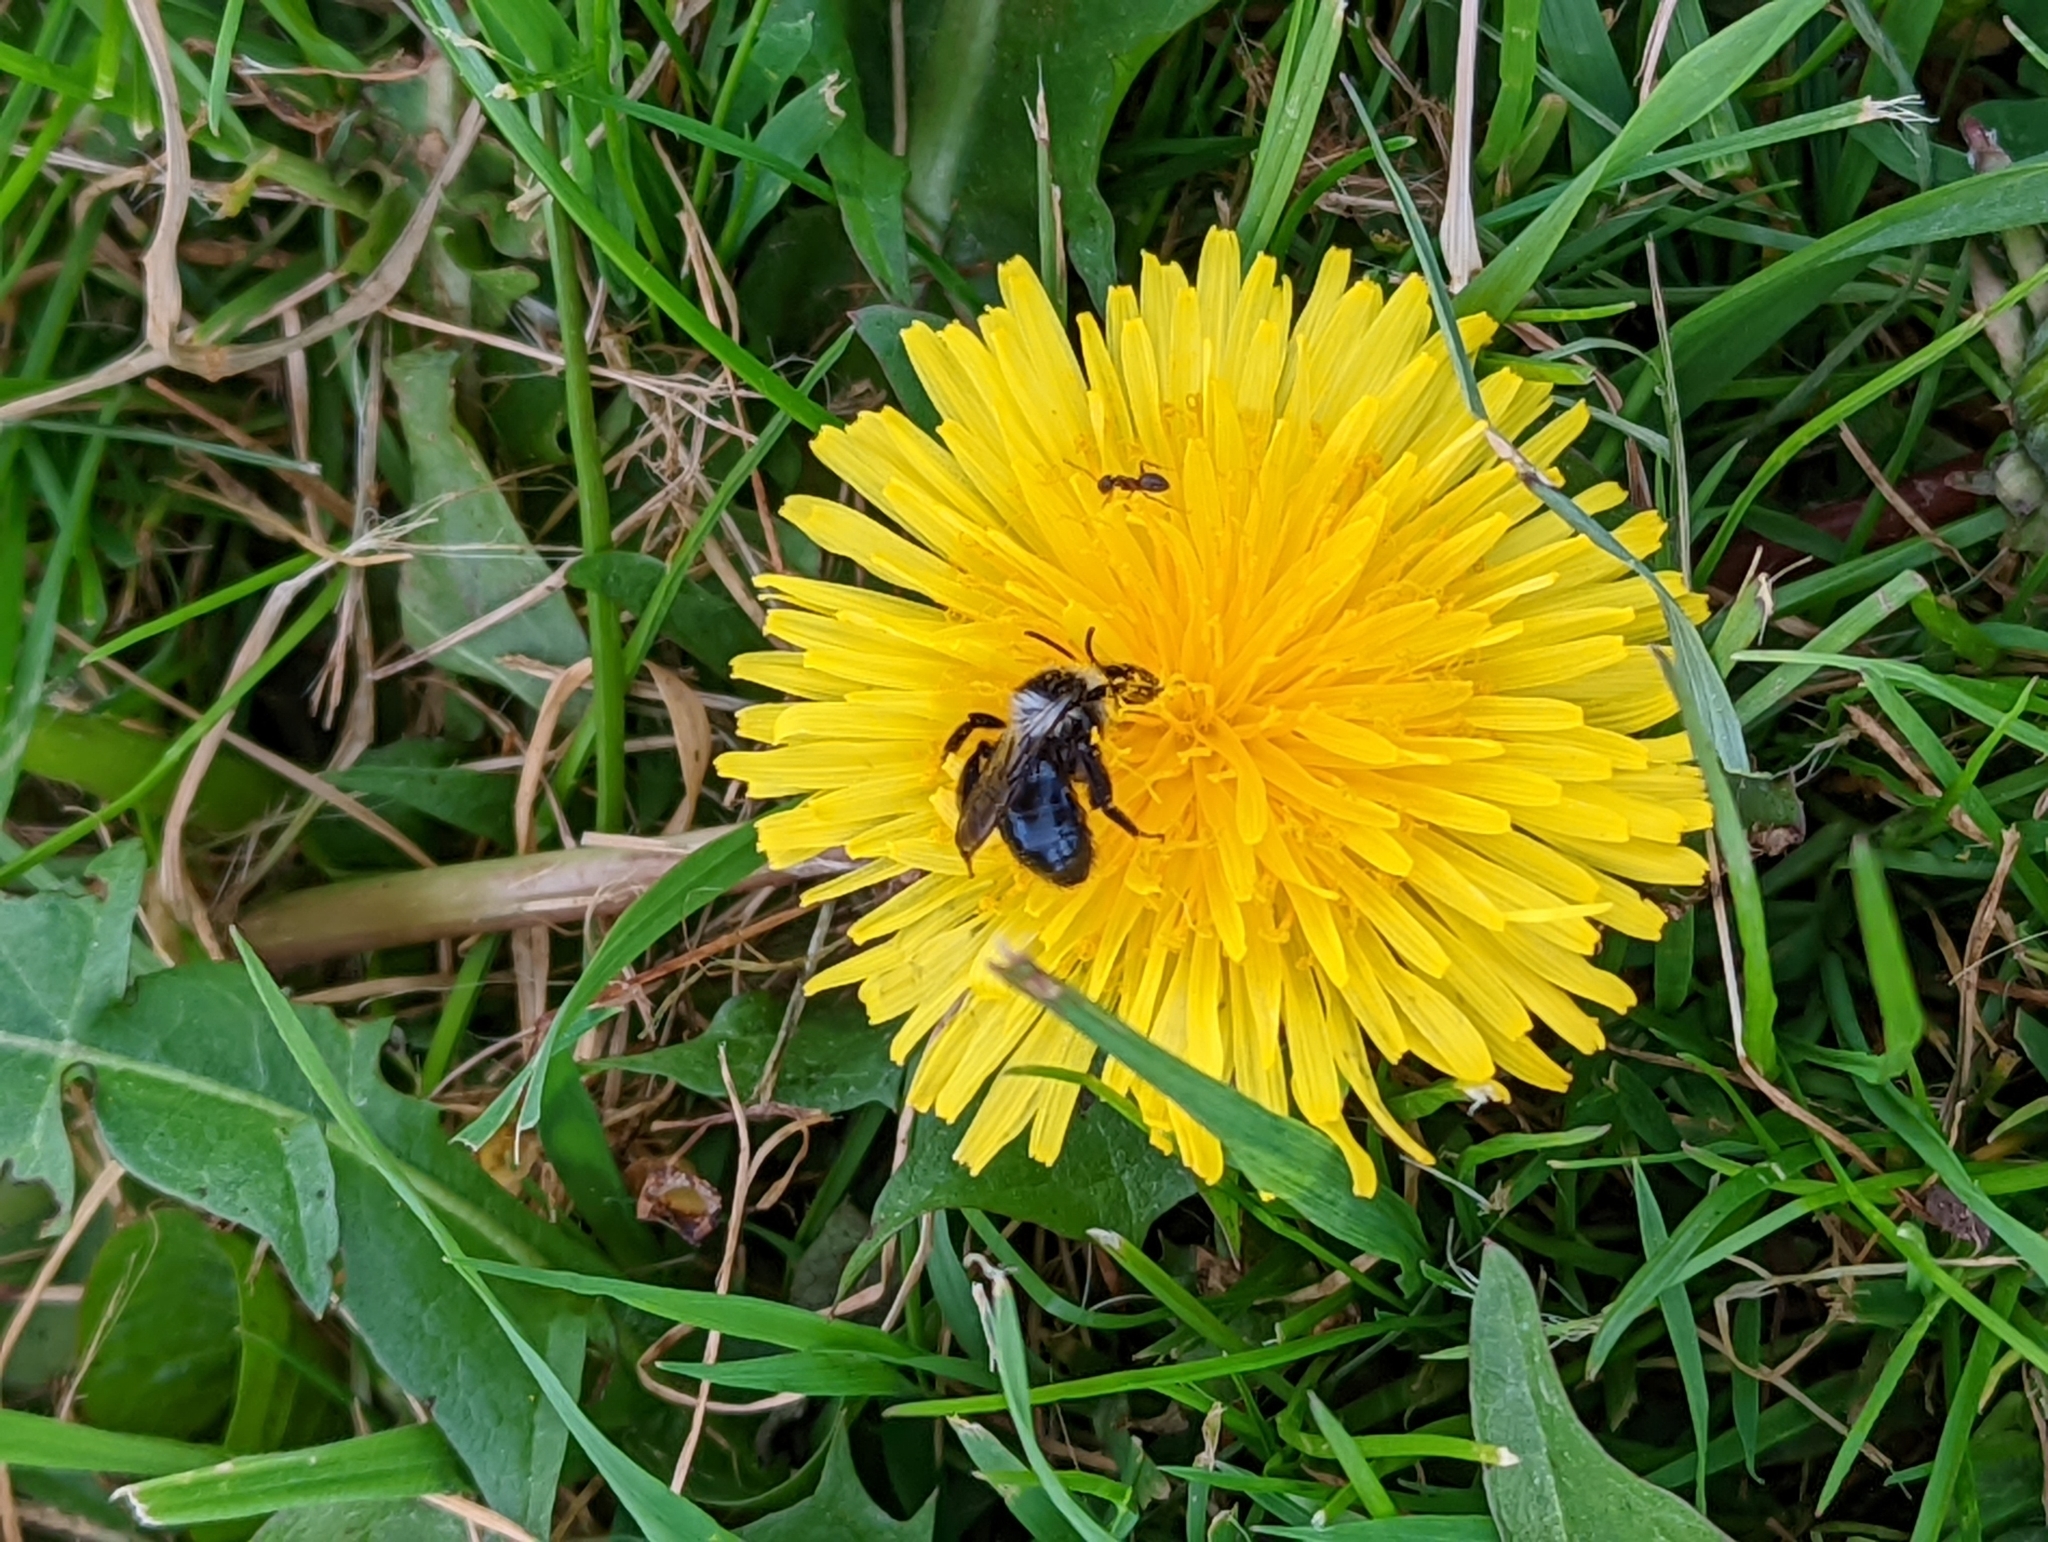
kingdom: Animalia
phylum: Arthropoda
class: Insecta
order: Hymenoptera
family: Andrenidae
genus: Andrena
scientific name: Andrena cineraria
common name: Ashy mining bee
